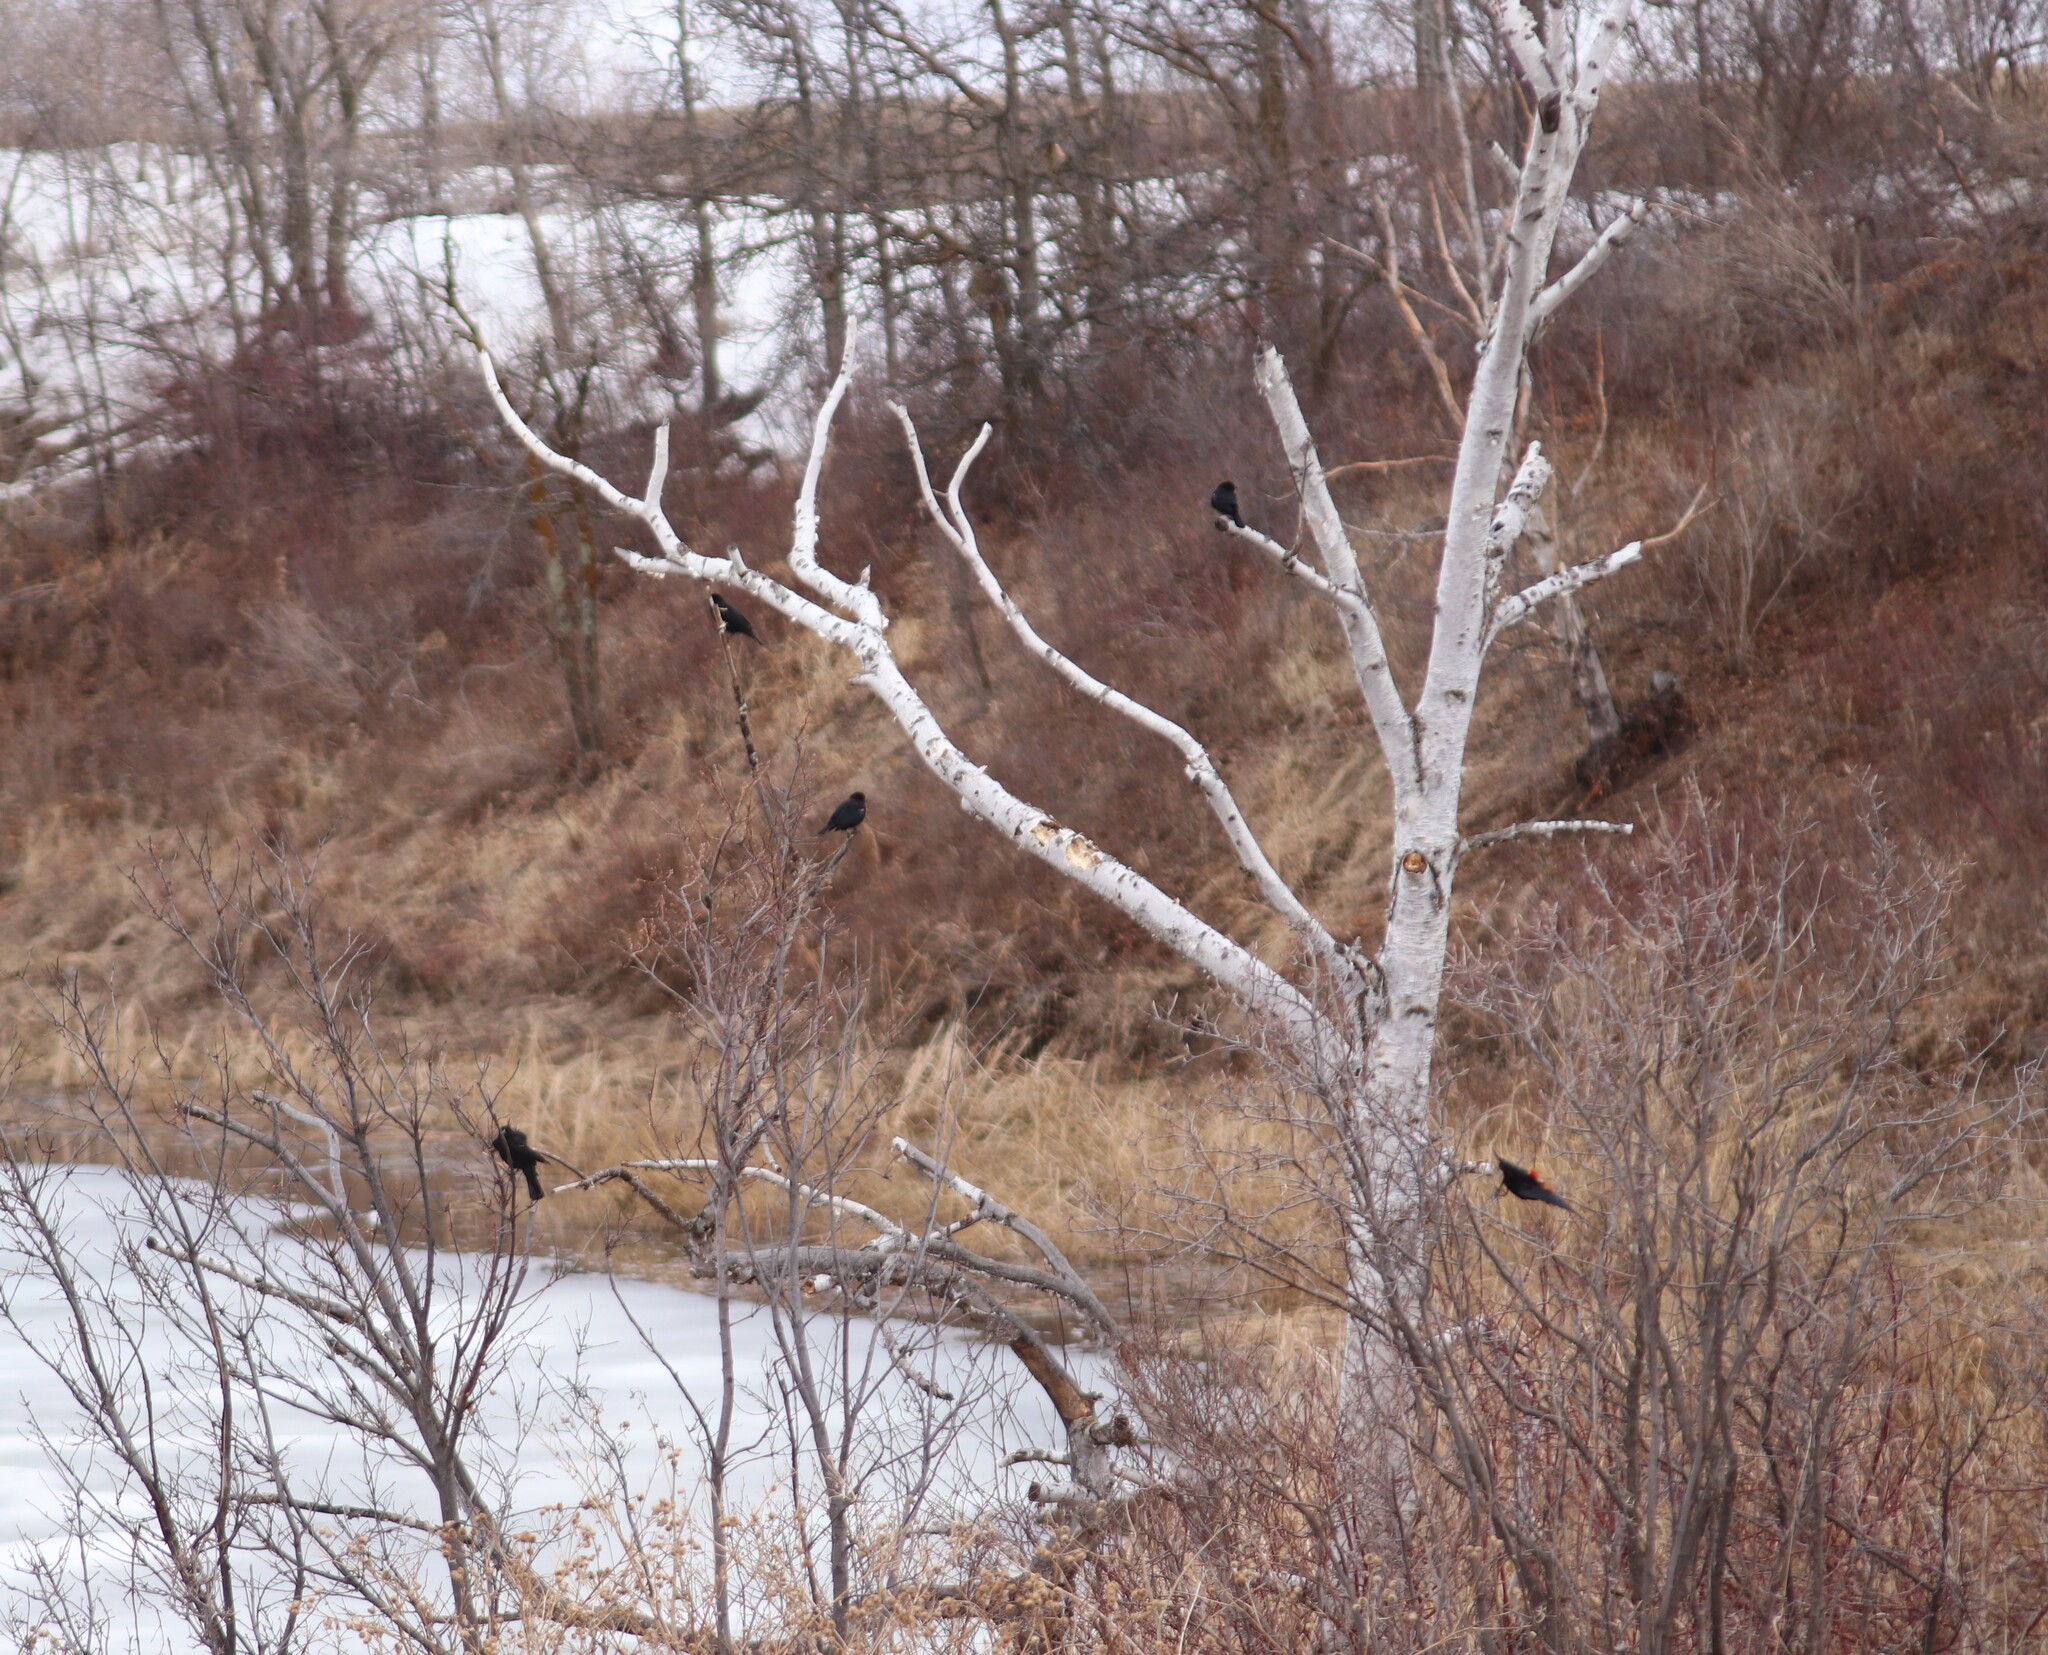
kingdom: Animalia
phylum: Chordata
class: Aves
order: Passeriformes
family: Icteridae
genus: Agelaius
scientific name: Agelaius phoeniceus
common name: Red-winged blackbird
